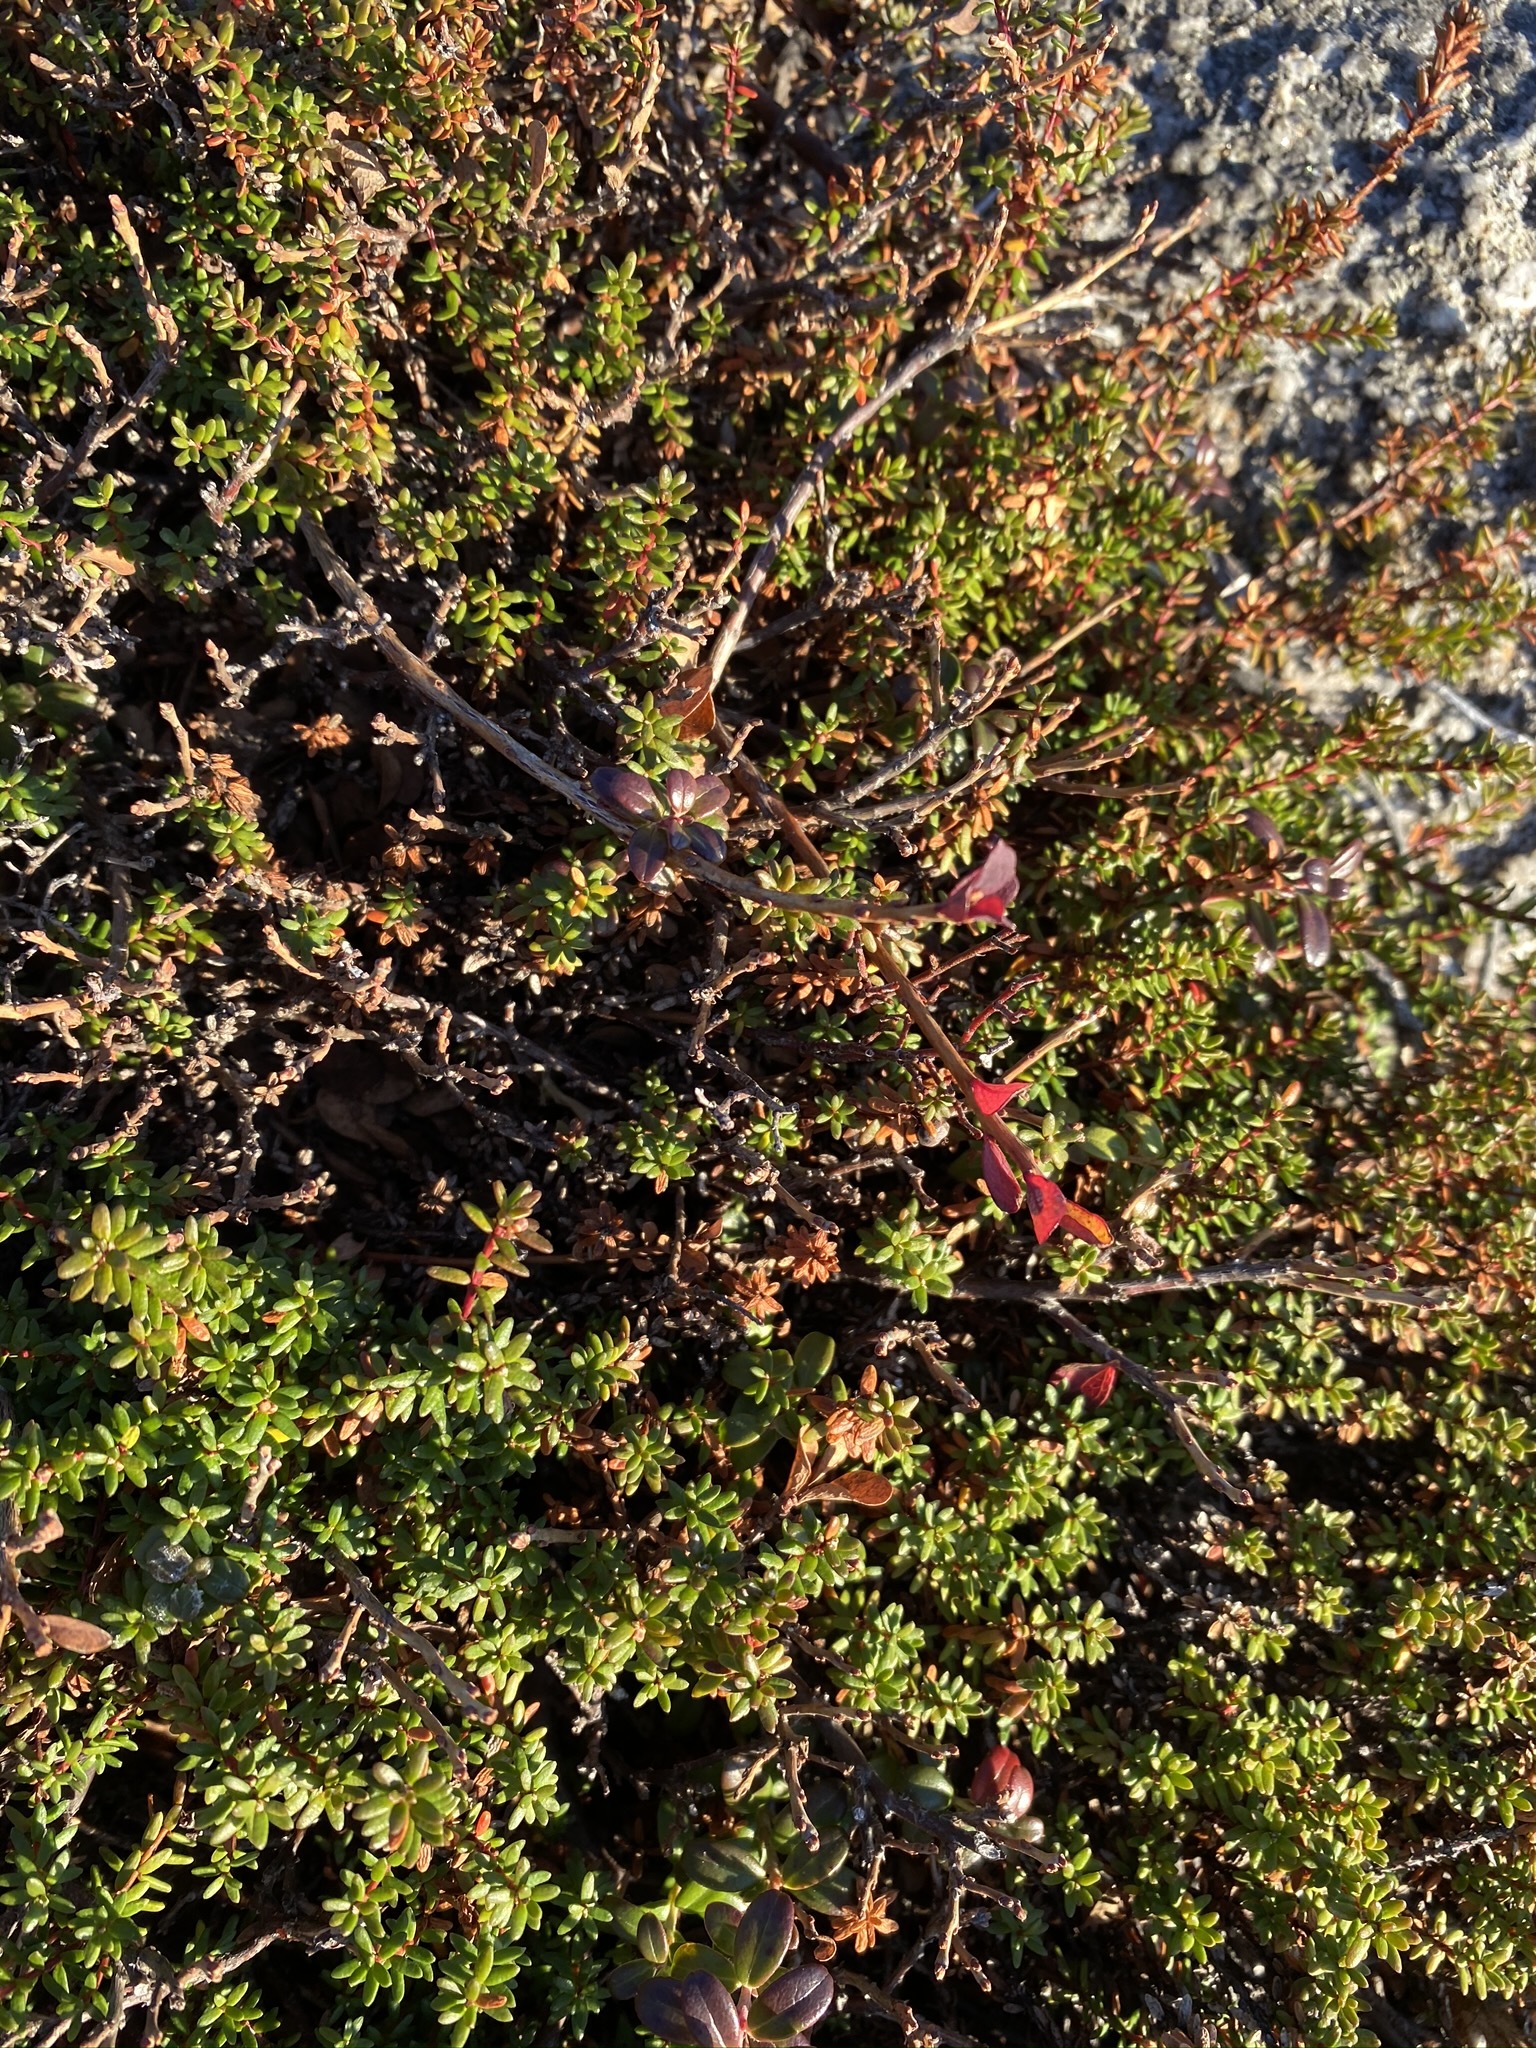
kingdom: Plantae
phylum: Tracheophyta
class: Magnoliopsida
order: Ericales
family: Ericaceae
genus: Empetrum
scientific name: Empetrum nigrum
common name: Black crowberry
